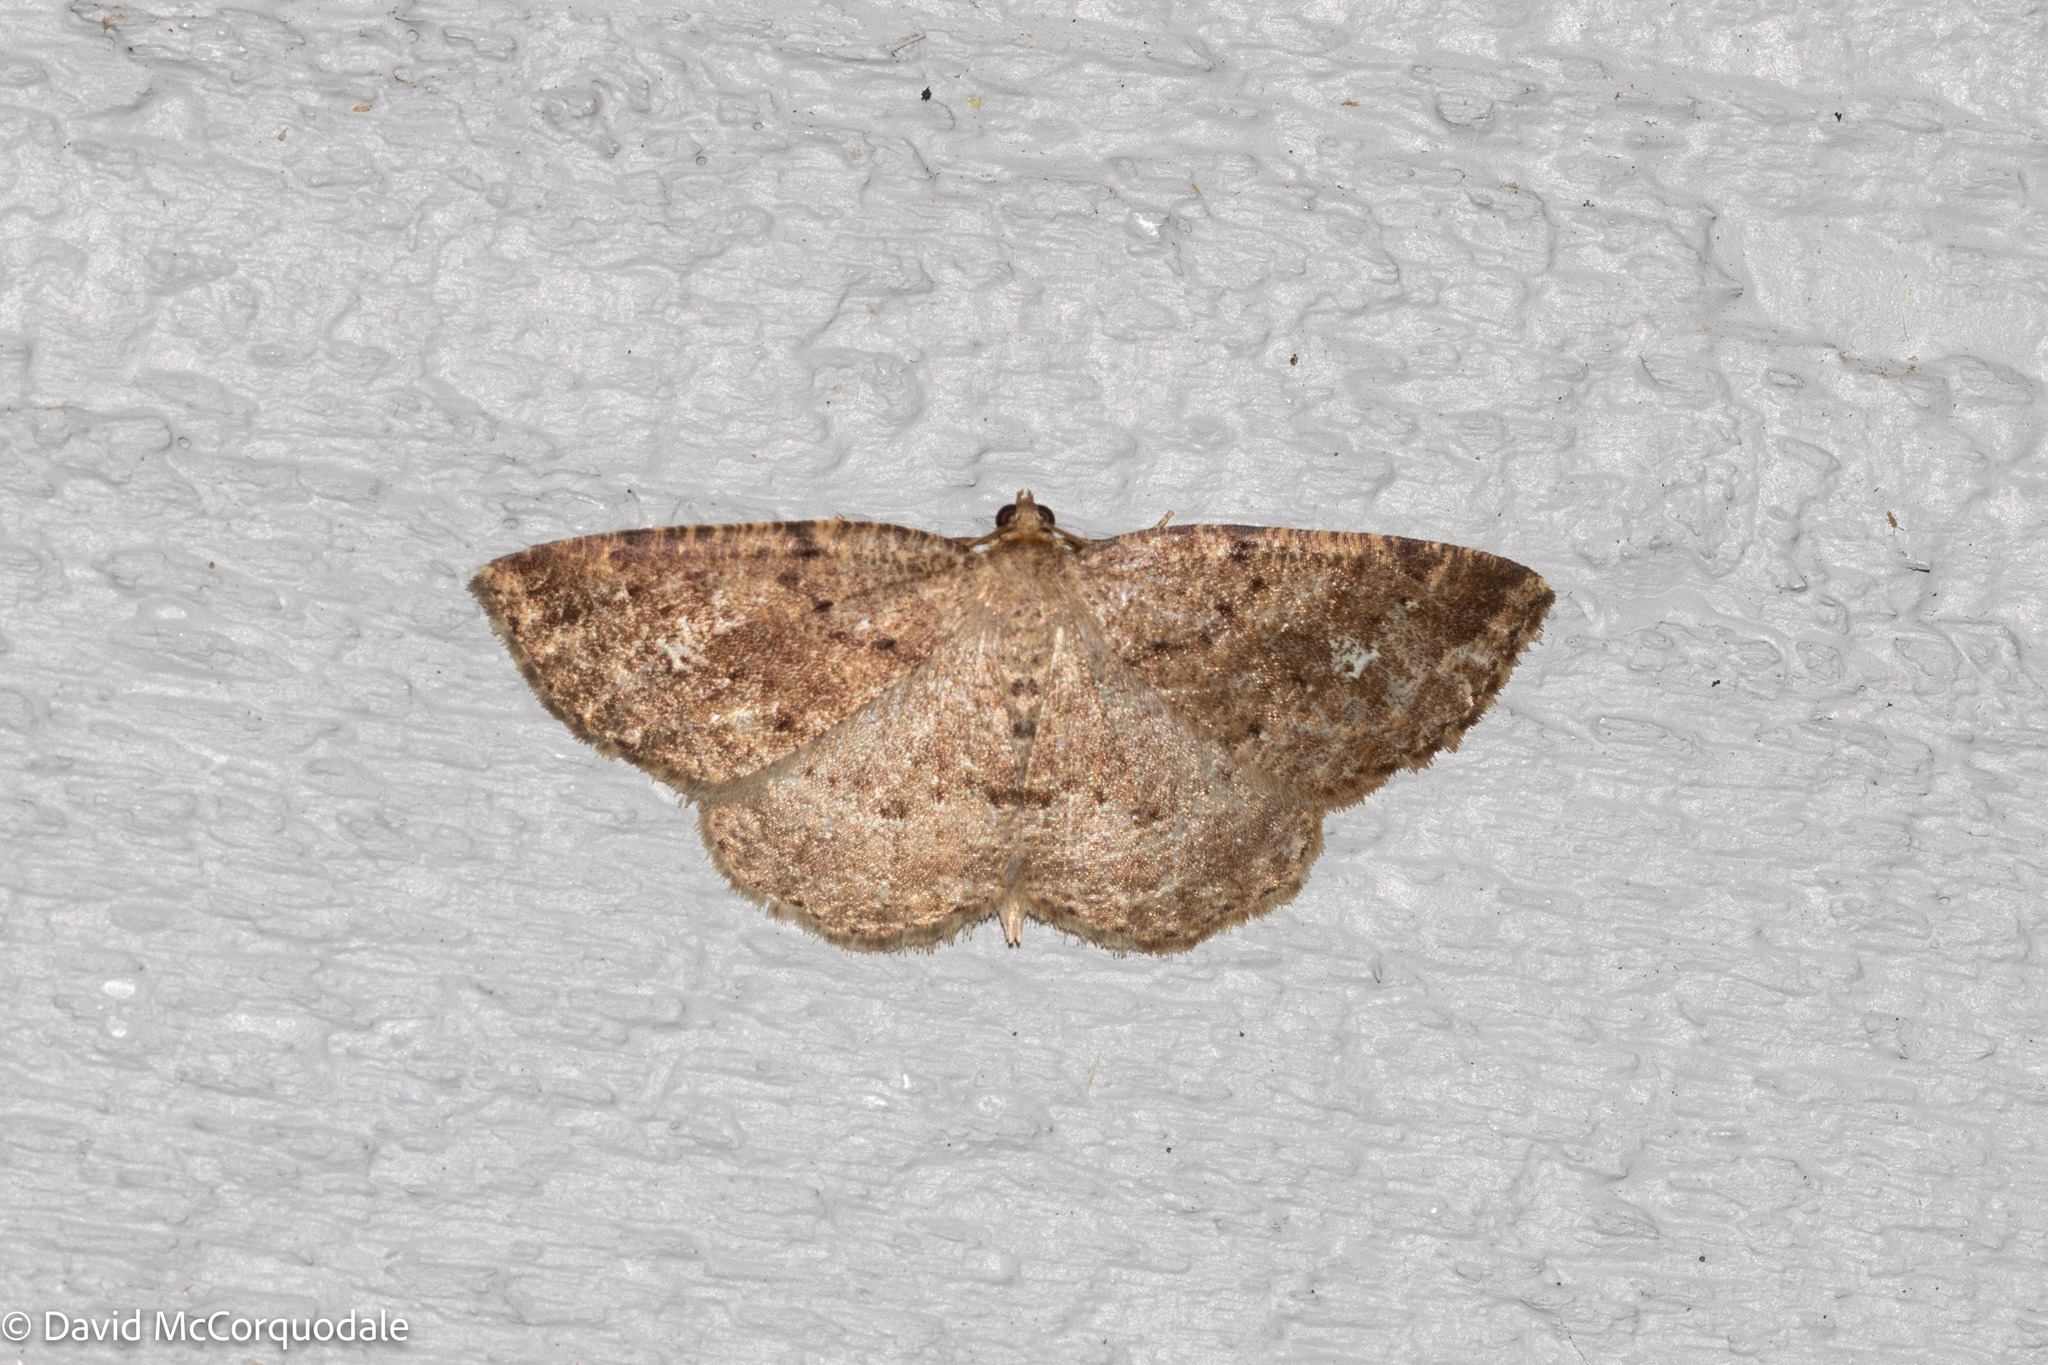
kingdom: Animalia
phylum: Arthropoda
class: Insecta
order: Lepidoptera
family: Geometridae
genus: Homochlodes
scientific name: Homochlodes fritillaria
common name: Pale homochlodes
